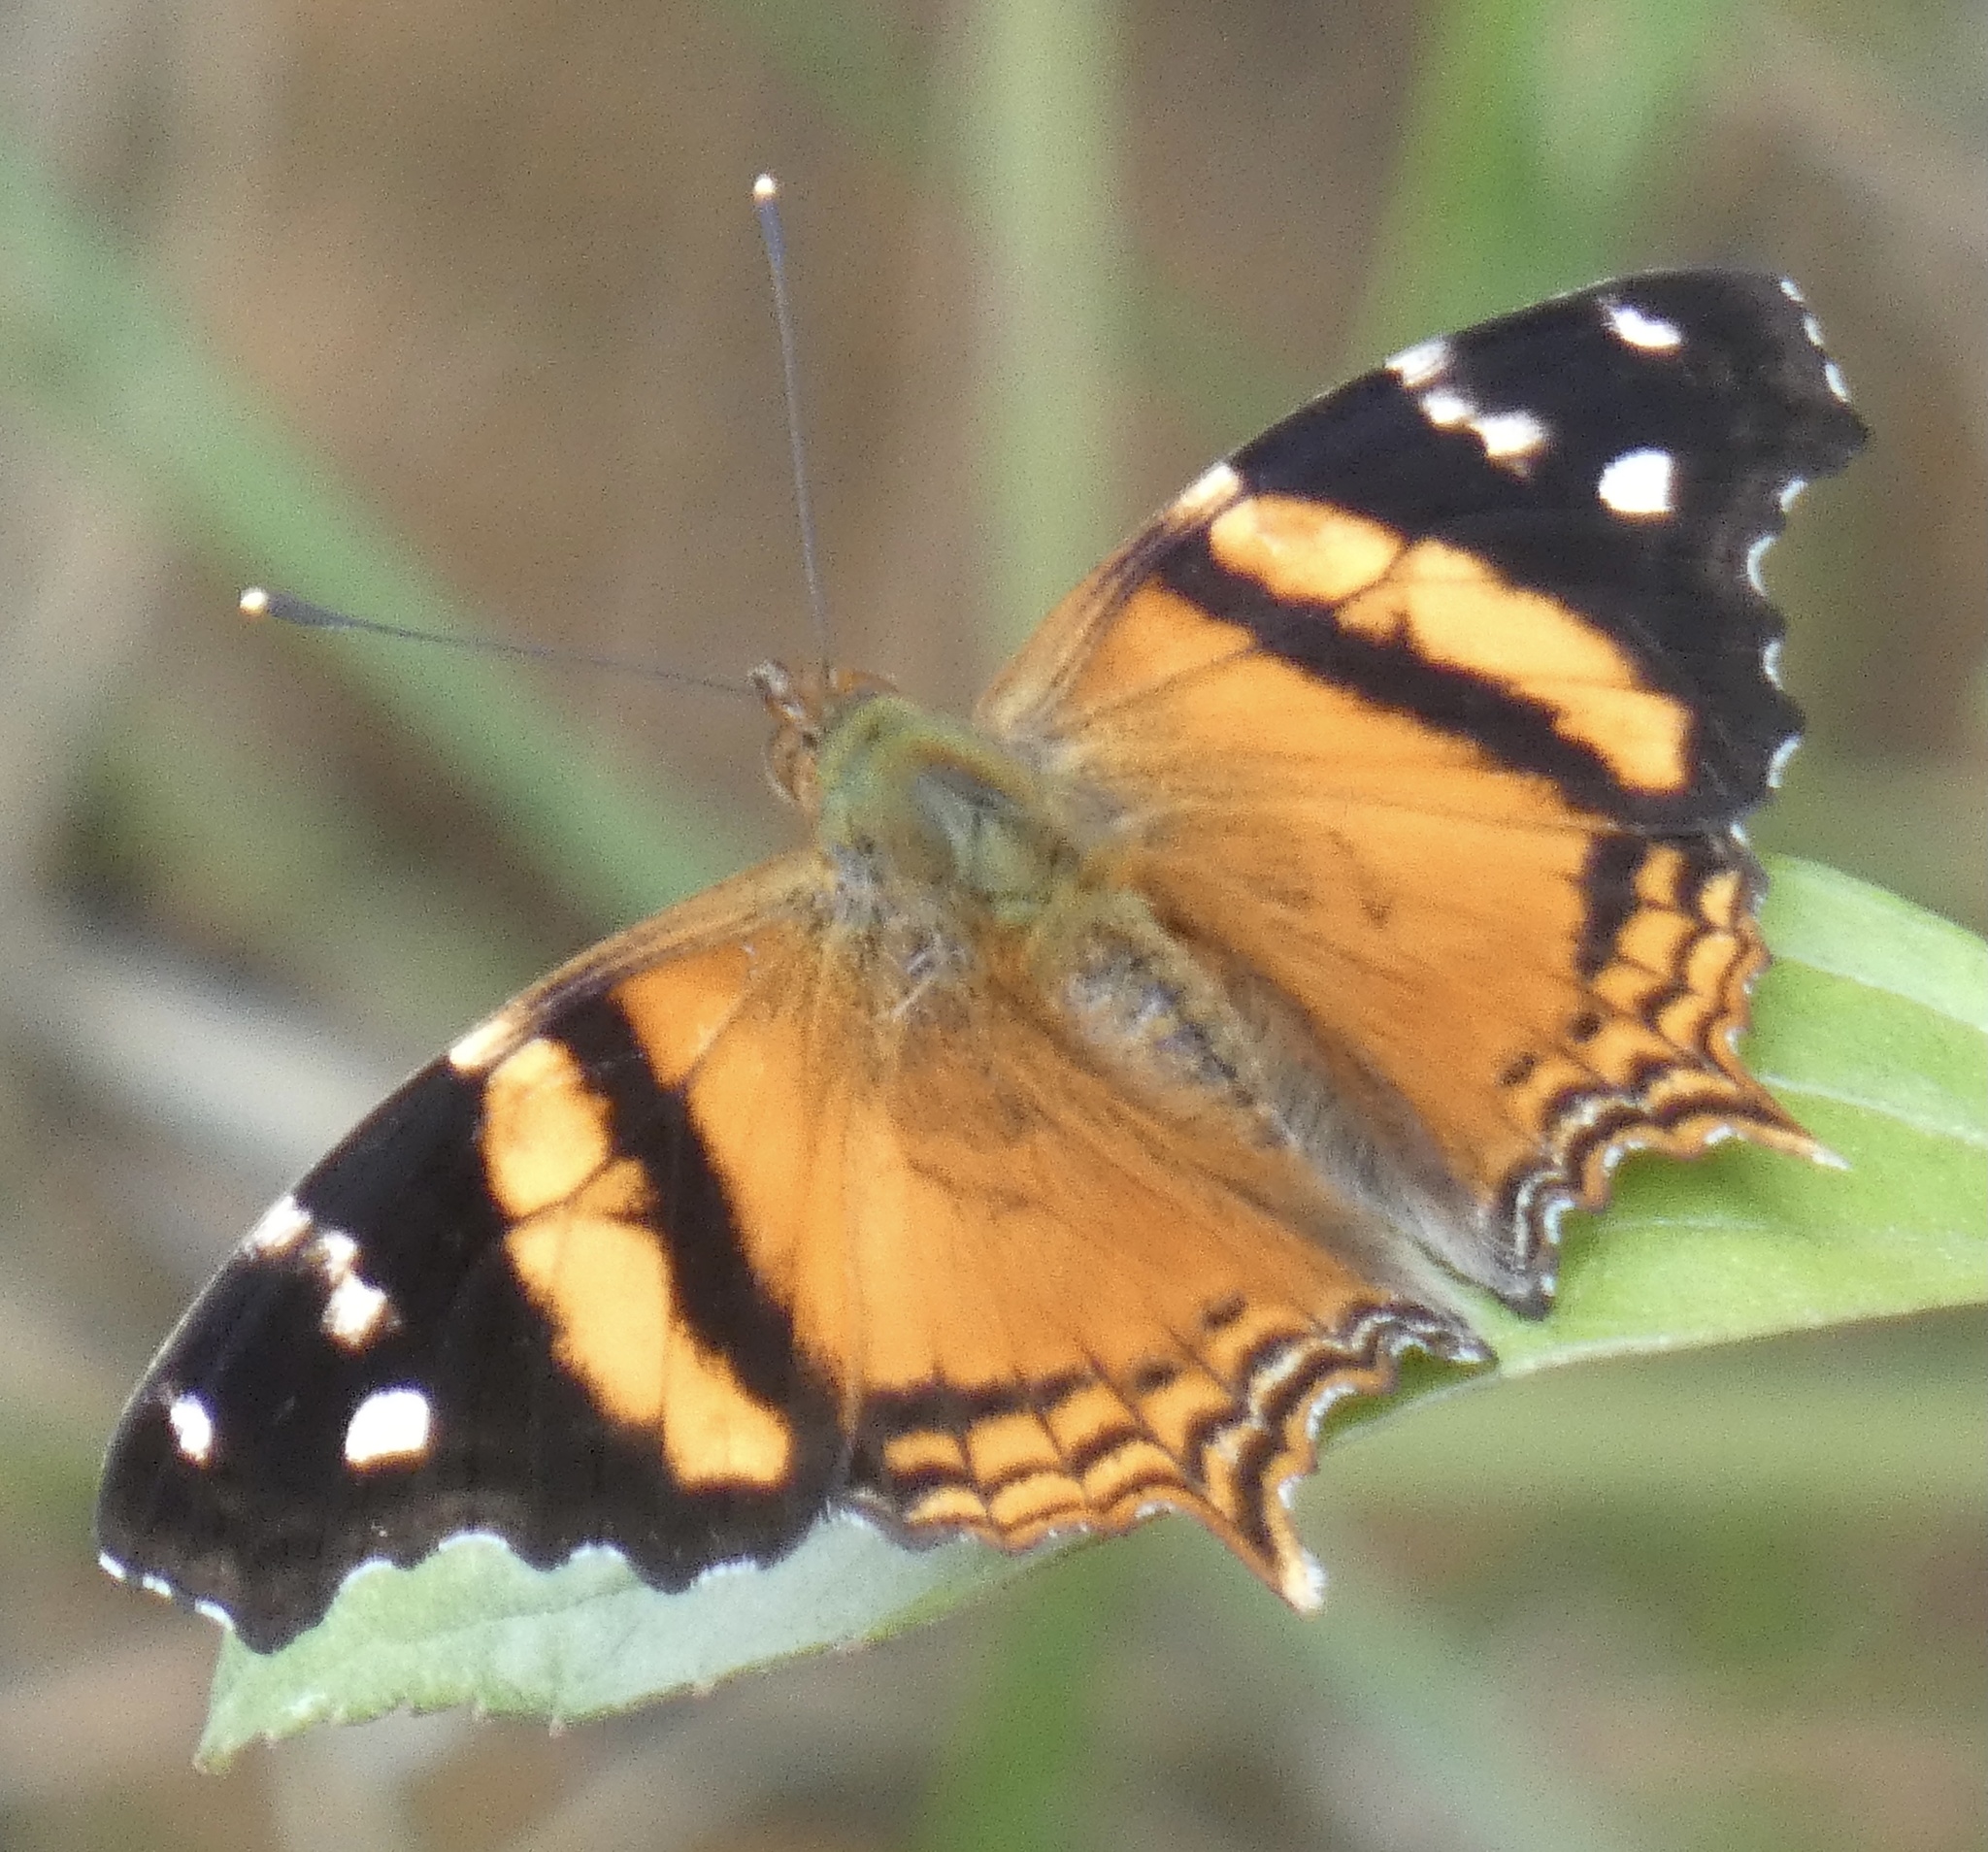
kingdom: Animalia
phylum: Arthropoda
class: Insecta
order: Lepidoptera
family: Nymphalidae
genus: Hypanartia
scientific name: Hypanartia bella
